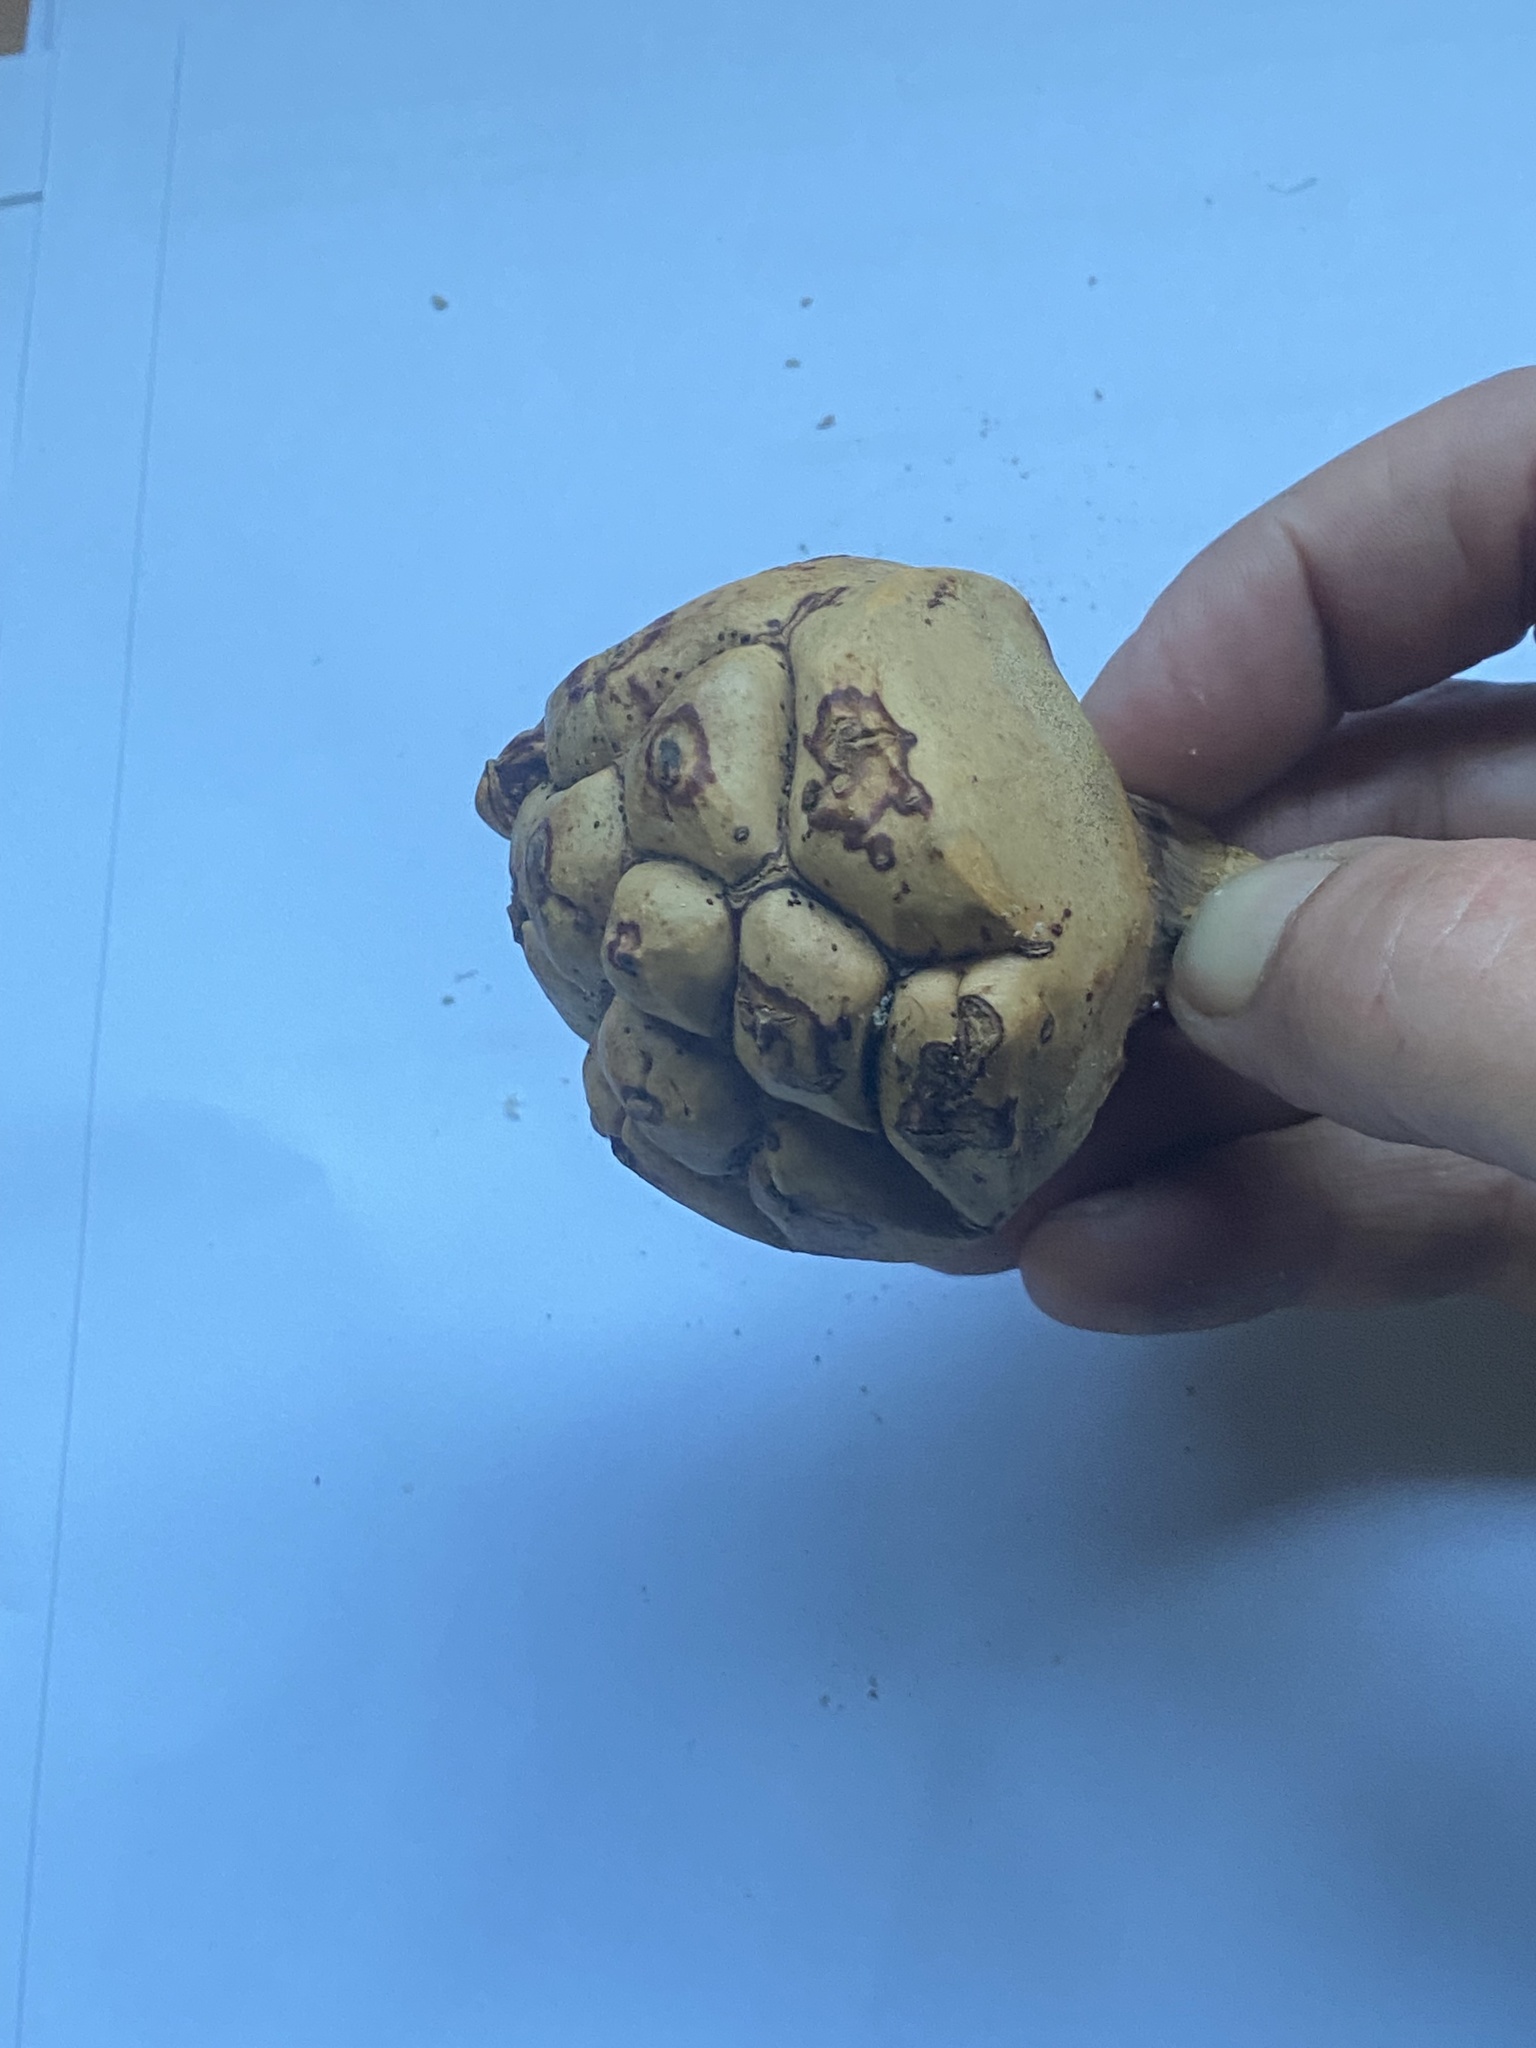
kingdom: Plantae
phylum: Tracheophyta
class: Liliopsida
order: Pandanales
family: Pandanaceae
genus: Pandanus
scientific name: Pandanus utilis
